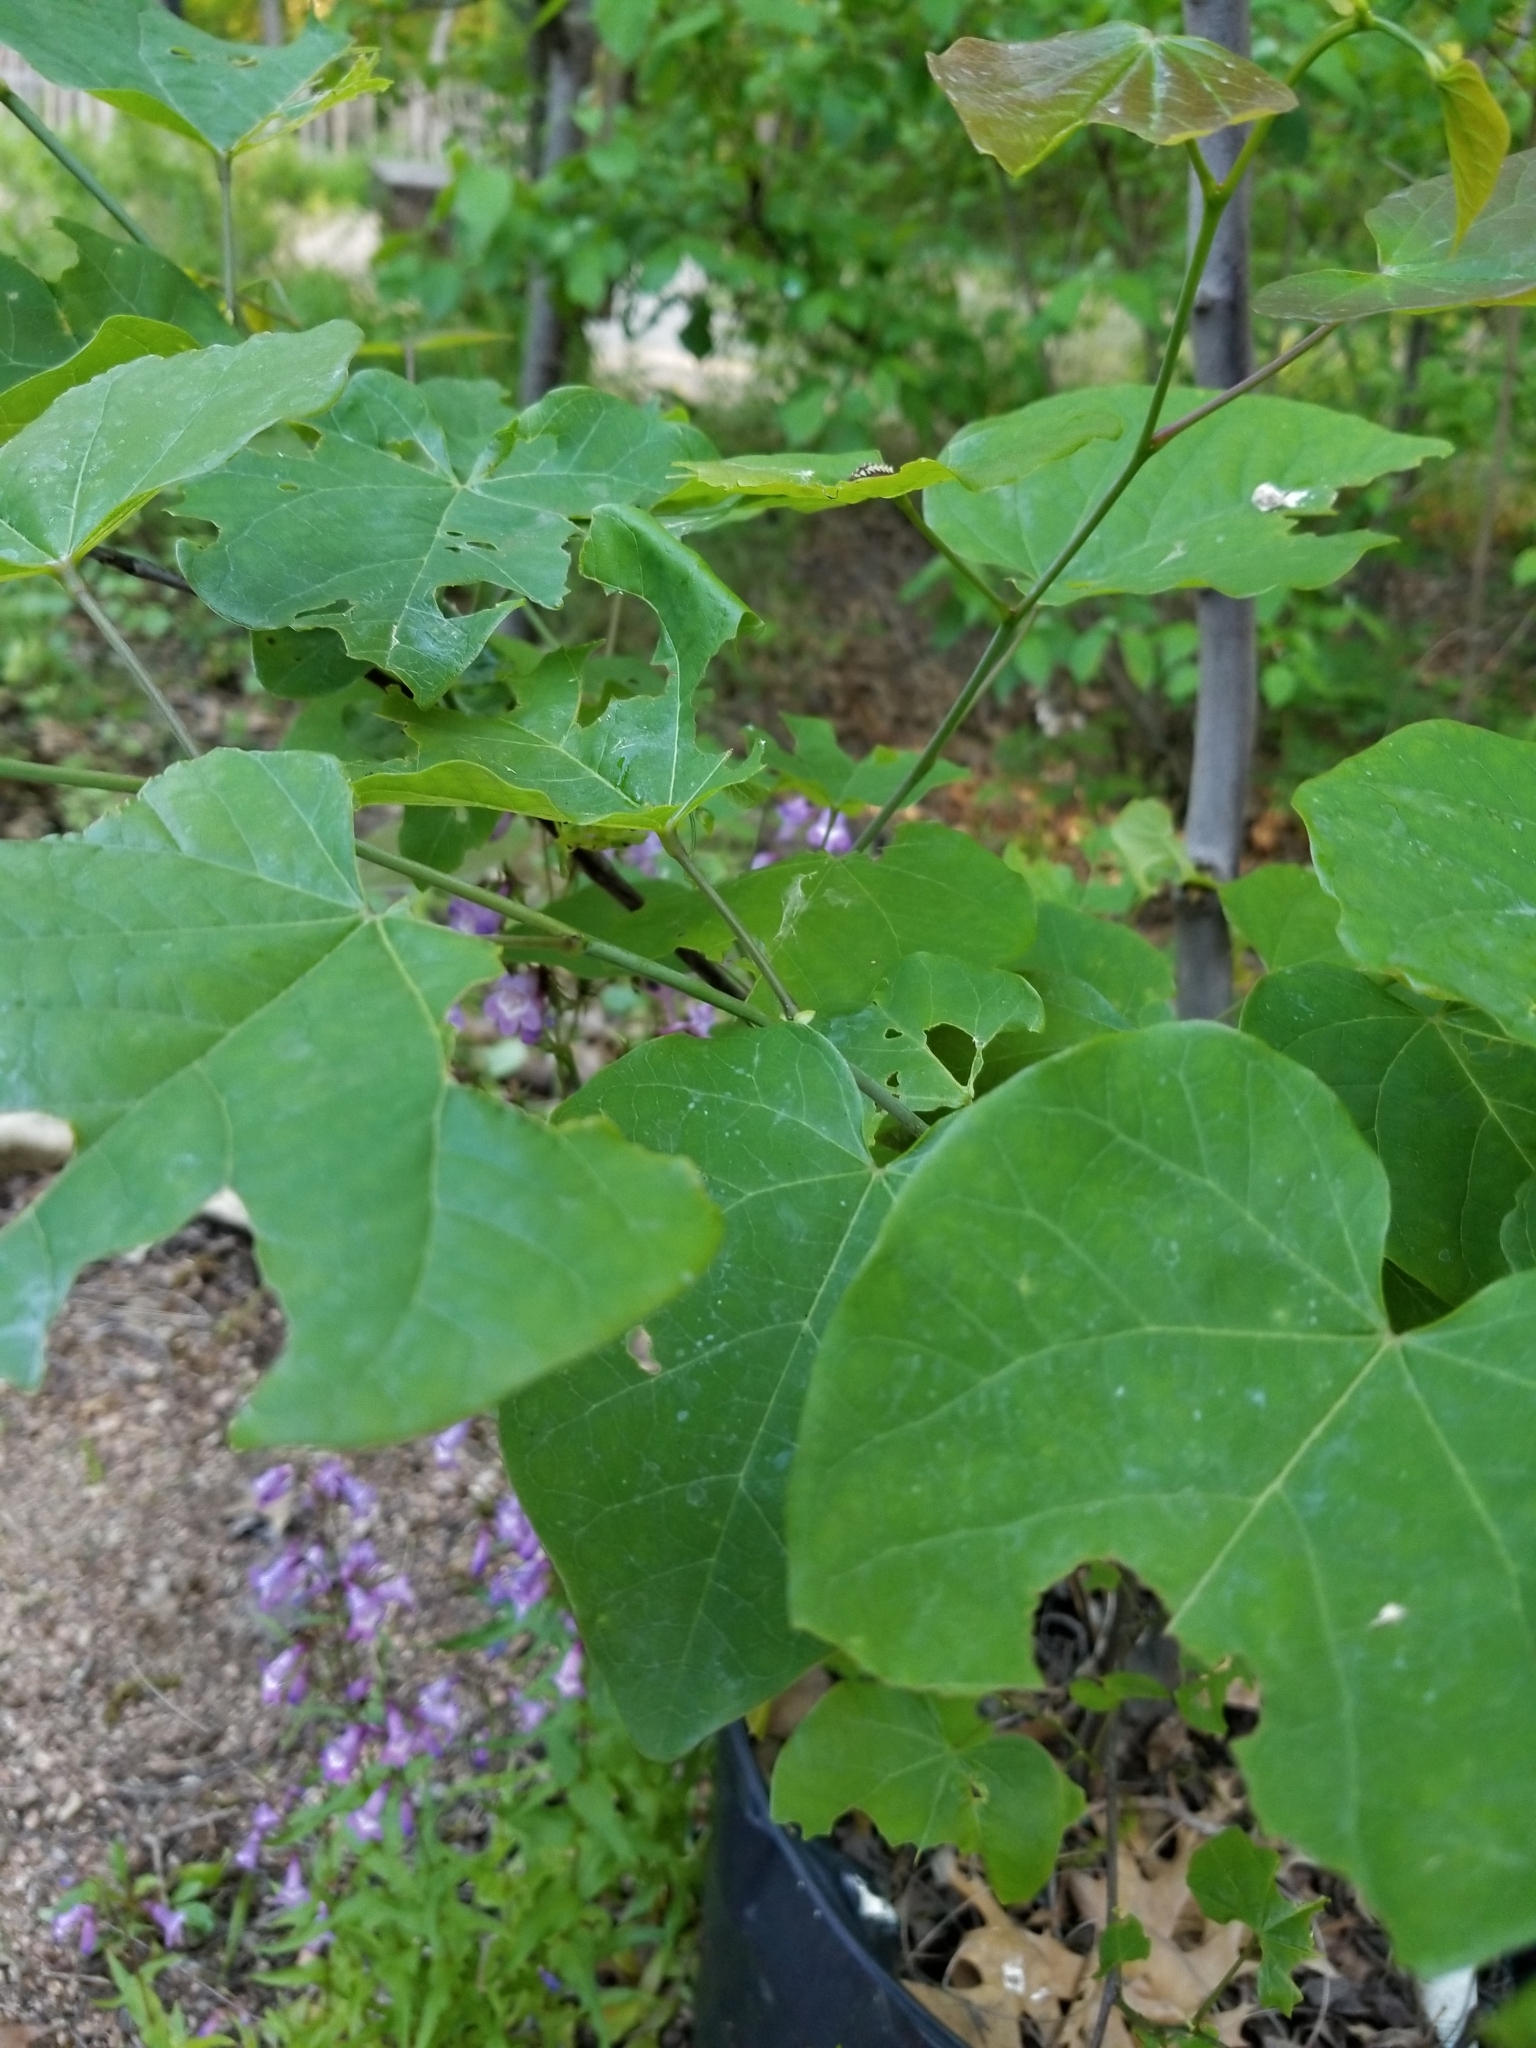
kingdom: Animalia
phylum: Arthropoda
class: Insecta
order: Lepidoptera
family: Lycaenidae
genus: Incisalia
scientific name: Incisalia henrici
